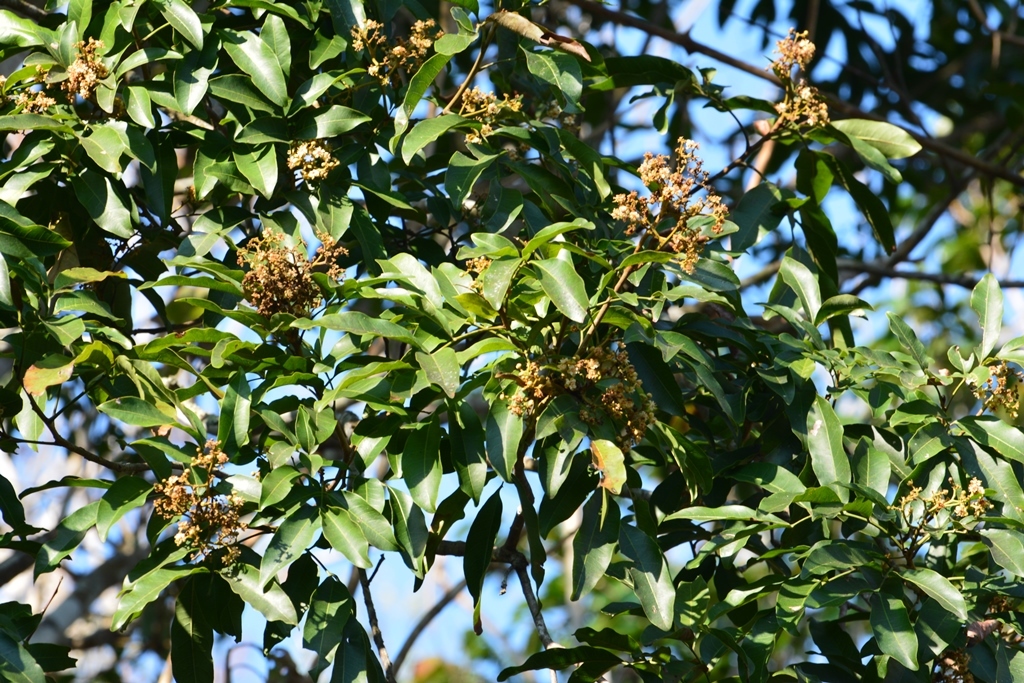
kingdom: Plantae
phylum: Tracheophyta
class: Magnoliopsida
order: Sapindales
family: Sapindaceae
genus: Sapindus
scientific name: Sapindus drummondii
